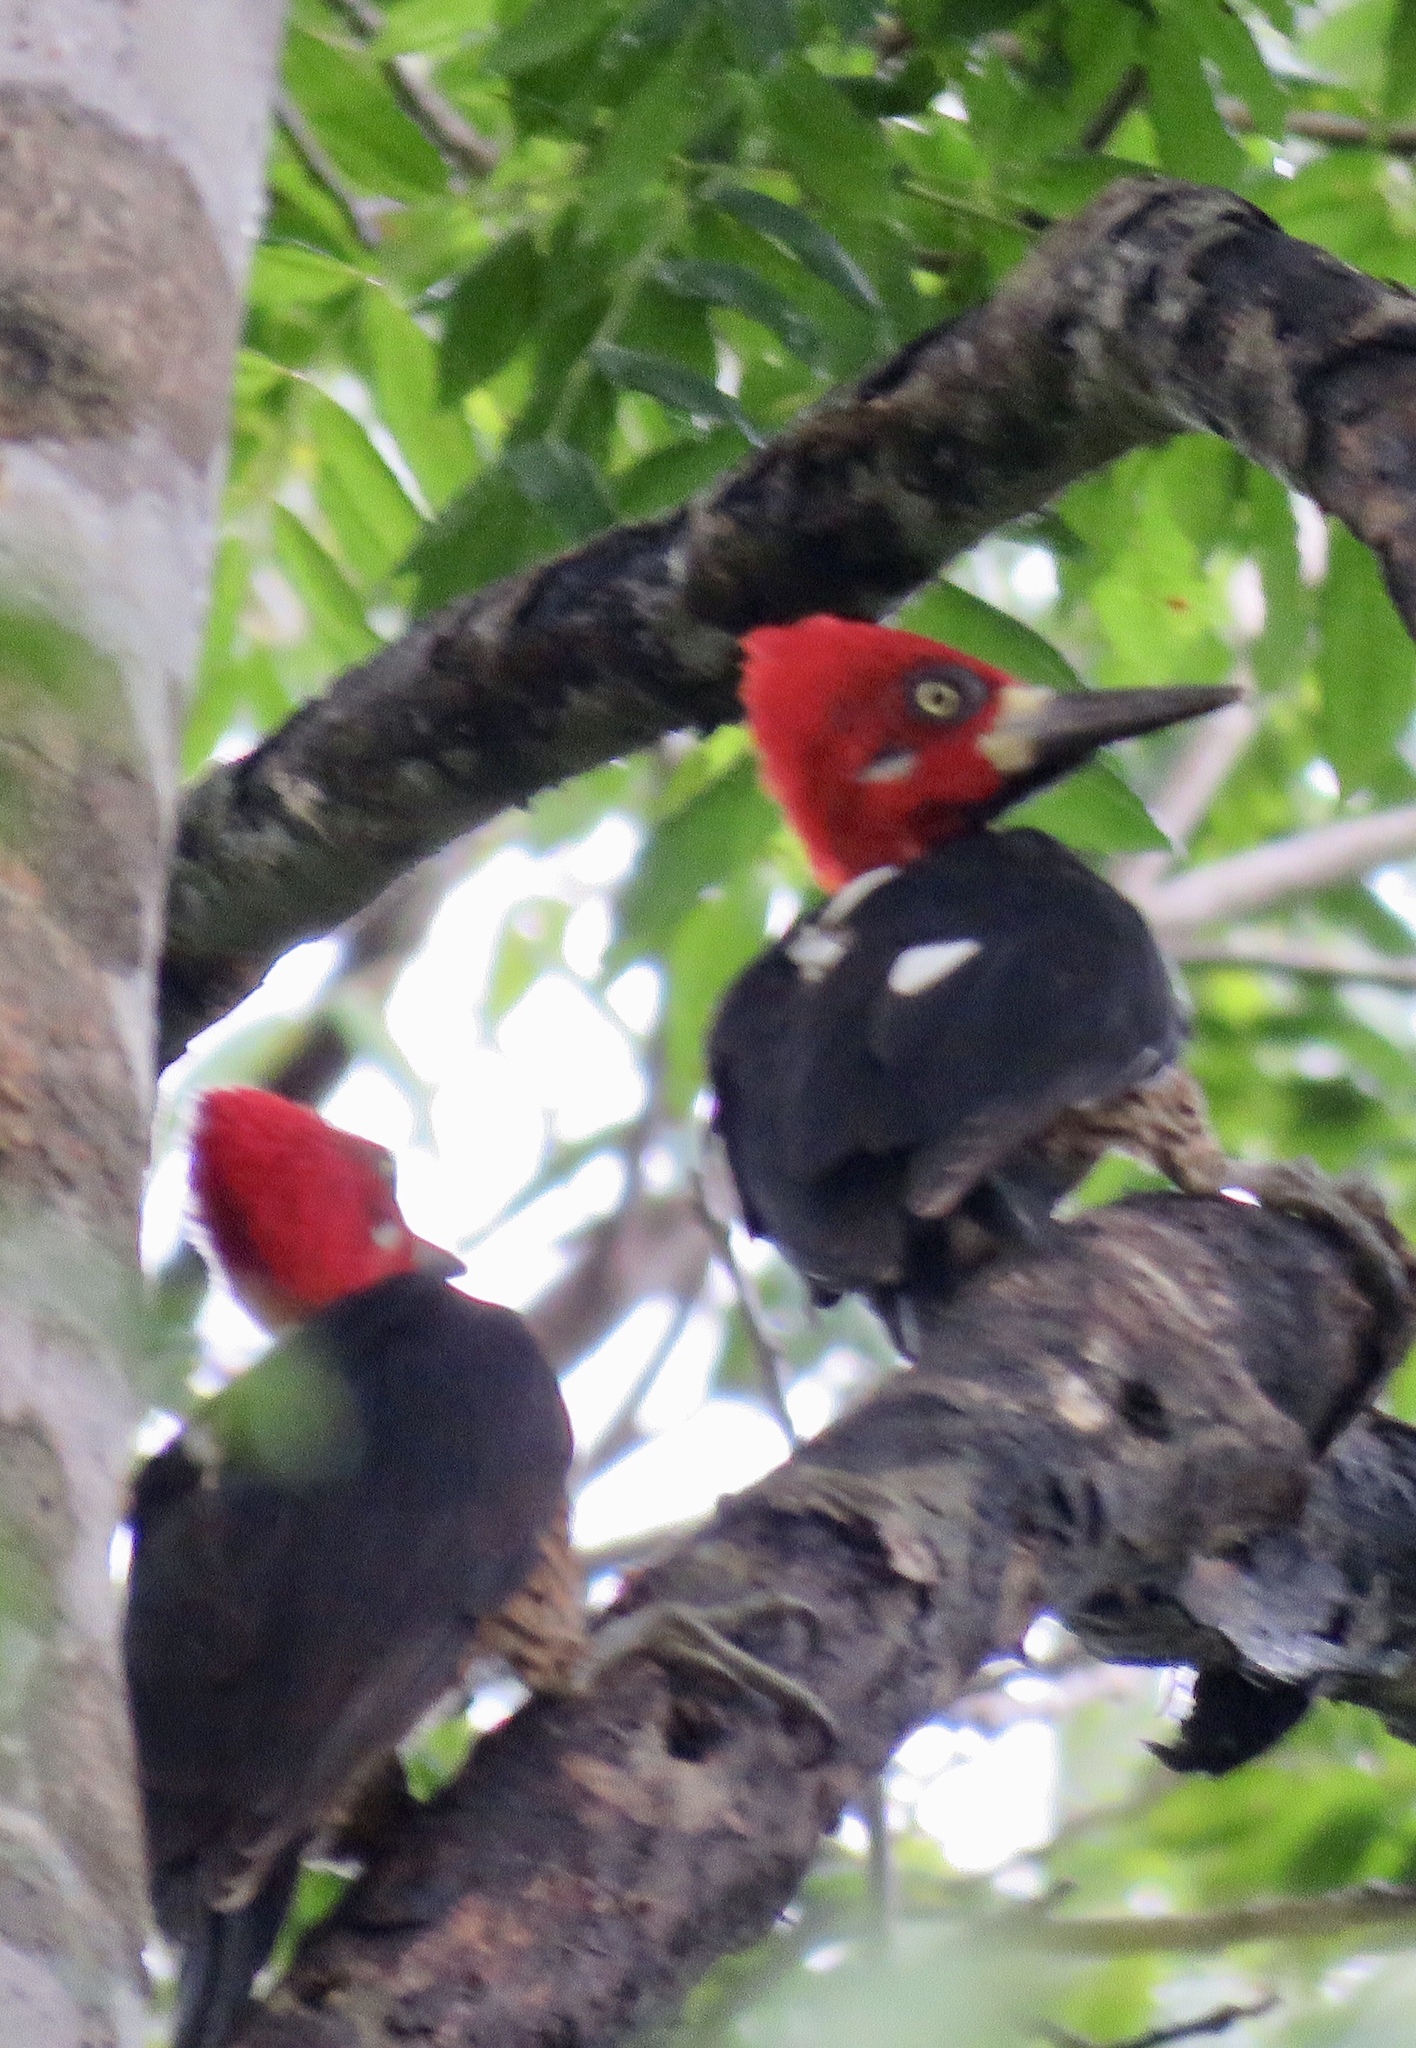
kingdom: Animalia
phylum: Chordata
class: Aves
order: Piciformes
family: Picidae
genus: Campephilus
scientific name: Campephilus melanoleucos
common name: Crimson-crested woodpecker
